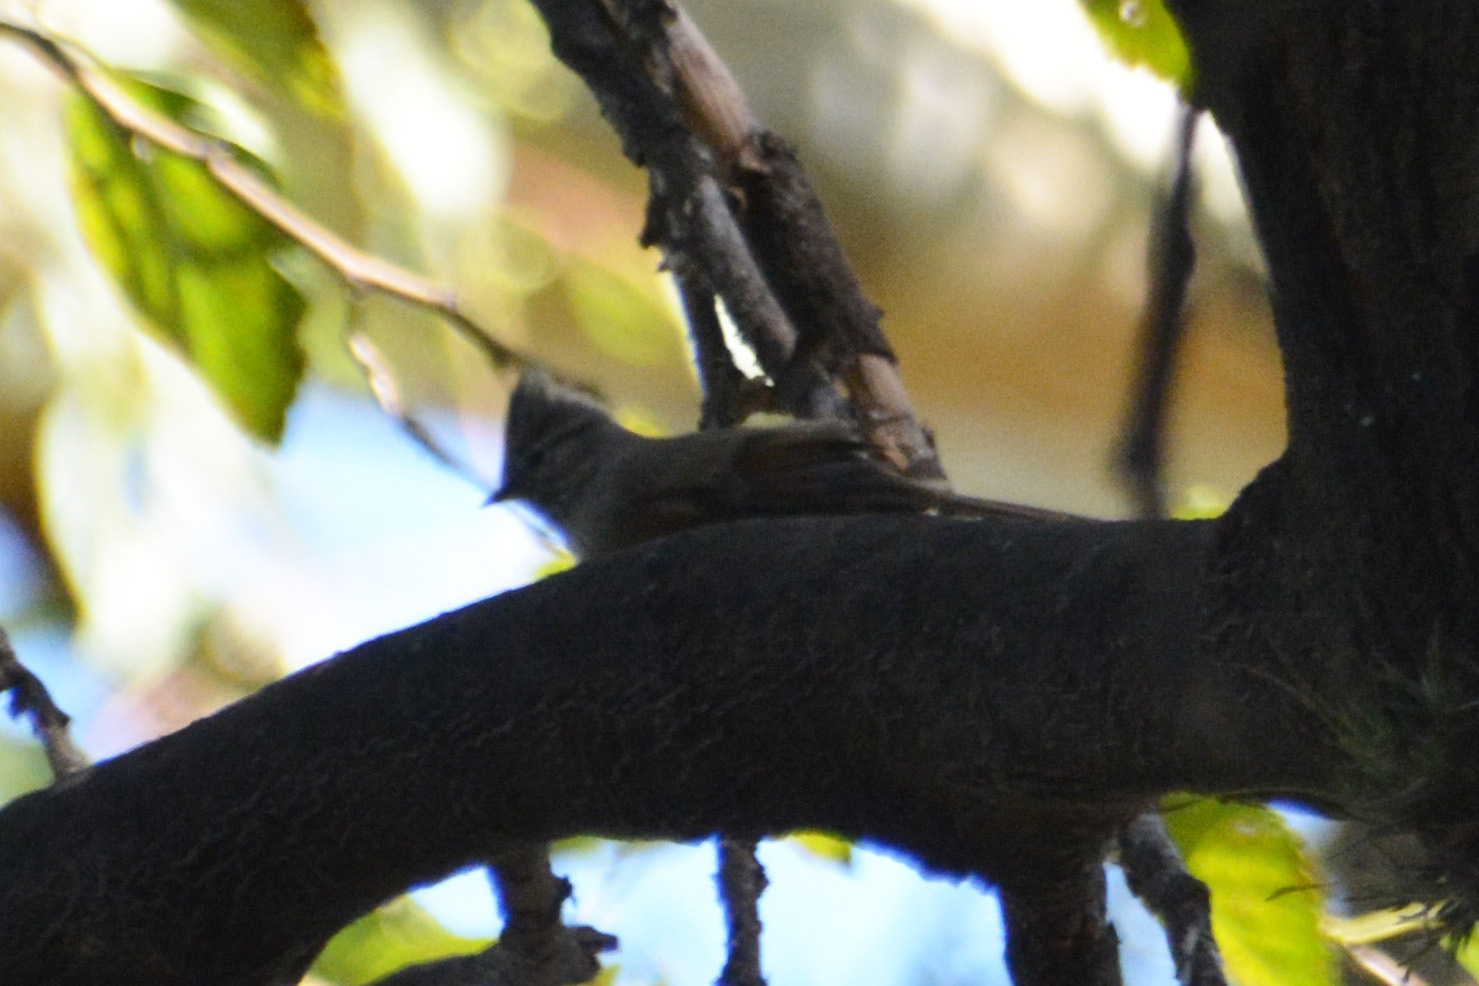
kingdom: Animalia
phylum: Chordata
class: Aves
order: Passeriformes
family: Furnariidae
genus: Leptasthenura
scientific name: Leptasthenura platensis
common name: Tufted tit-spinetail
